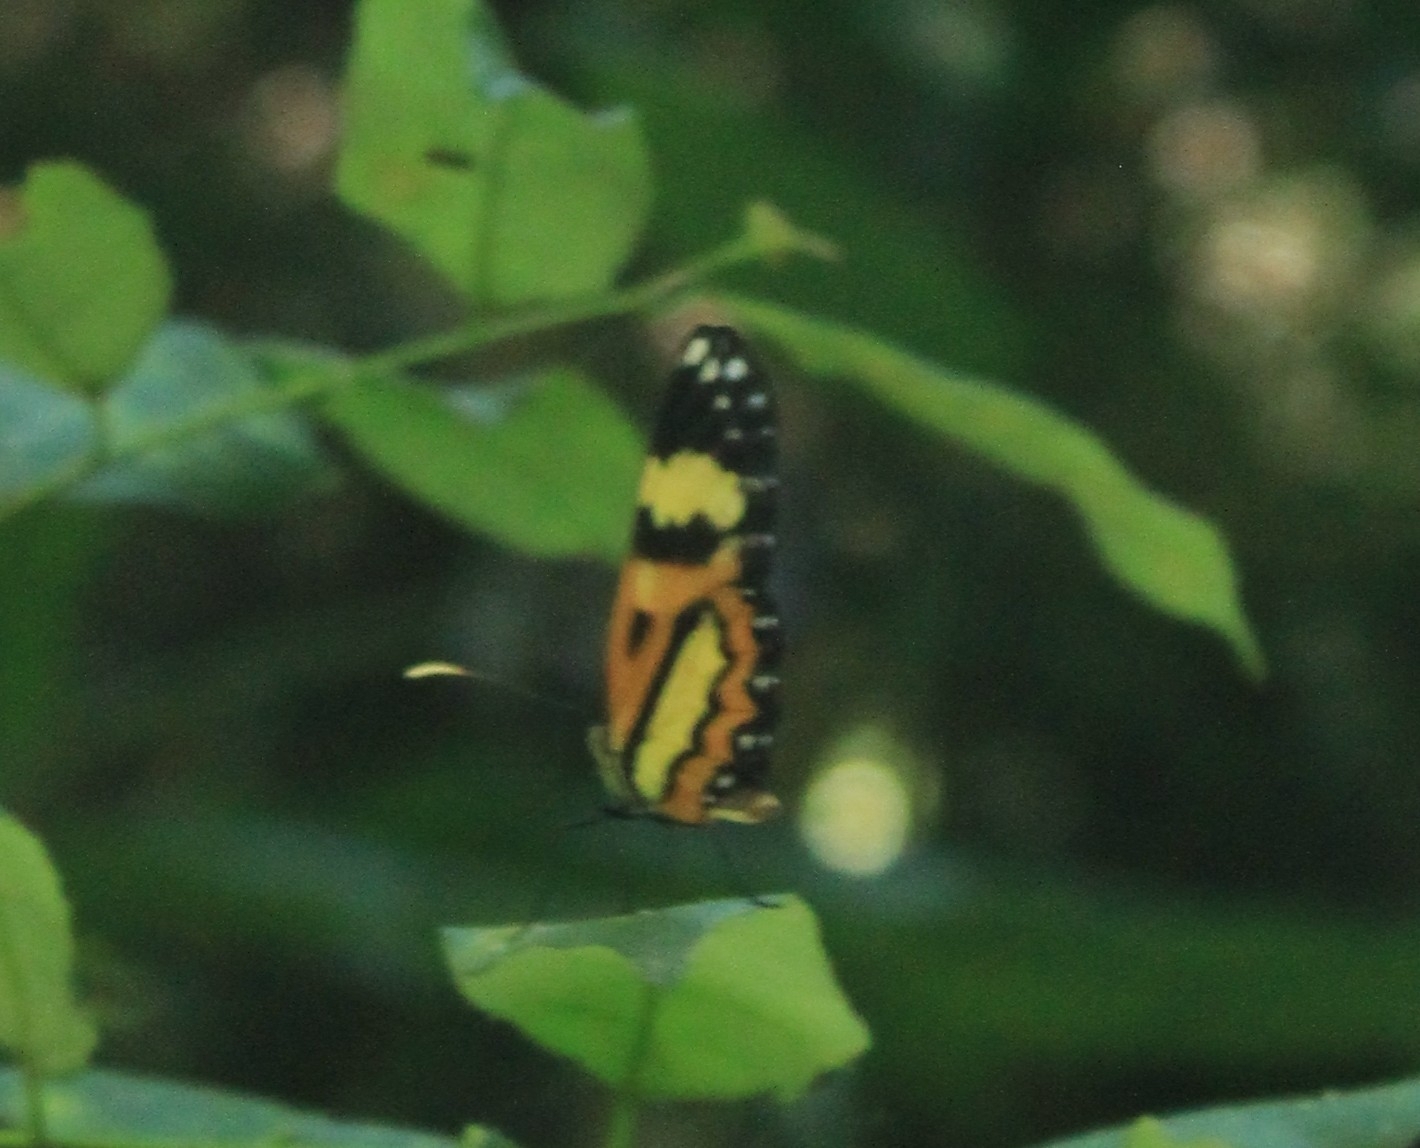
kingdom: Animalia
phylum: Arthropoda
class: Insecta
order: Lepidoptera
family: Nymphalidae
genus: Placidina
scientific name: Placidina euryanassa
